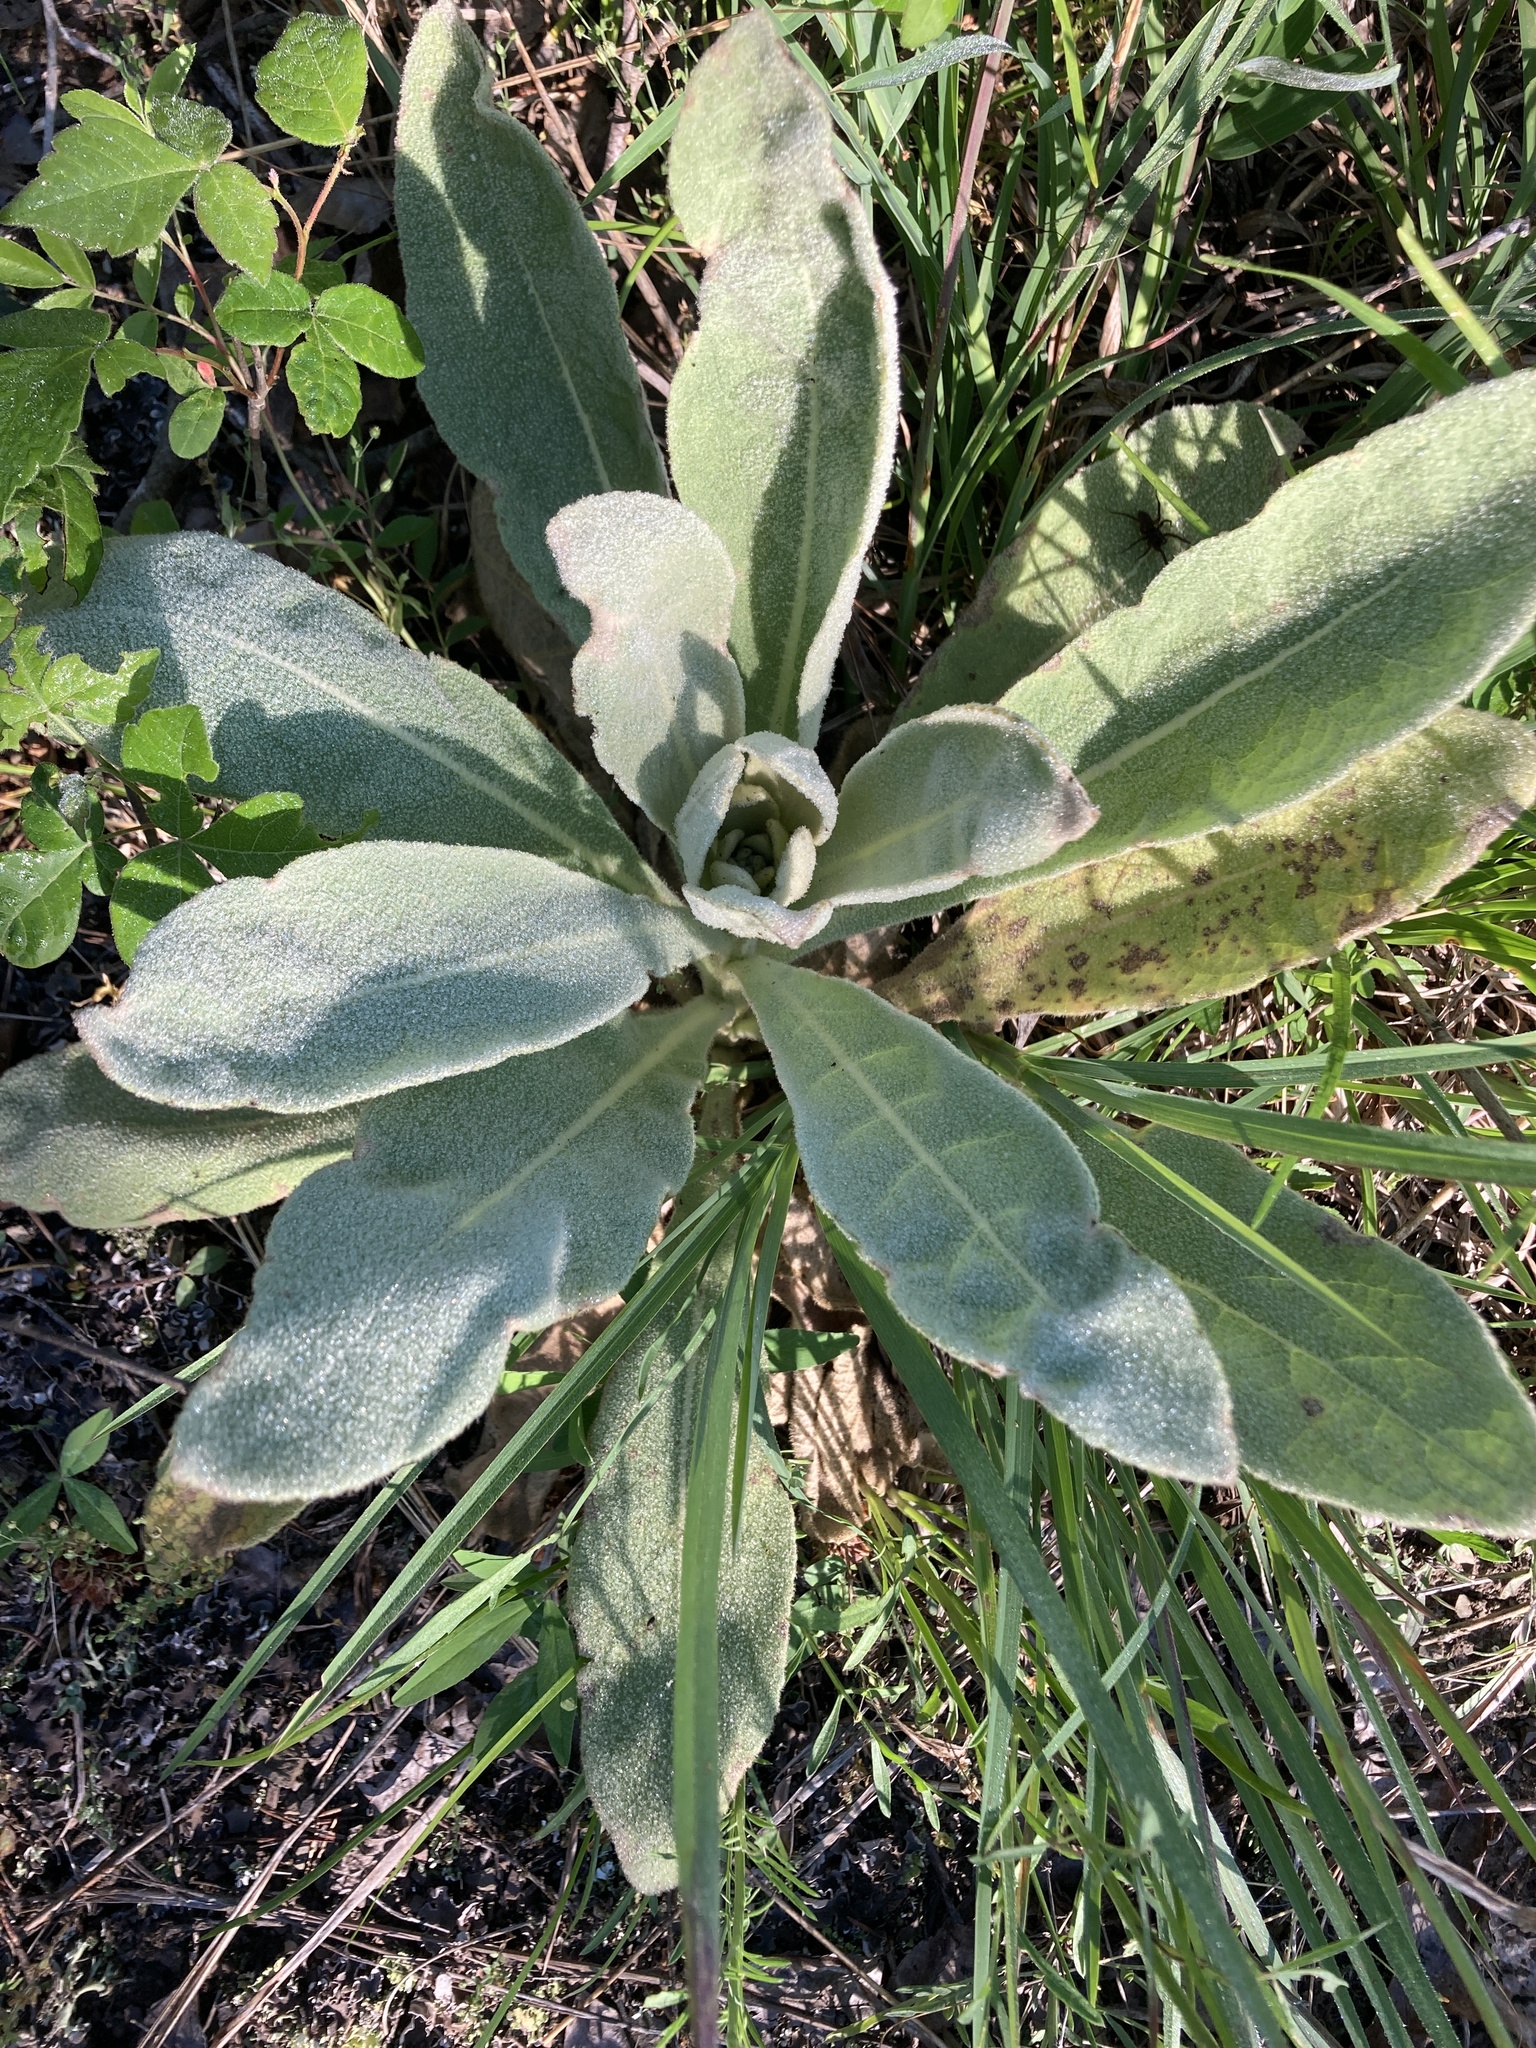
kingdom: Plantae
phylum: Tracheophyta
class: Magnoliopsida
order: Lamiales
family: Scrophulariaceae
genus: Verbascum
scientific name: Verbascum thapsus
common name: Common mullein
